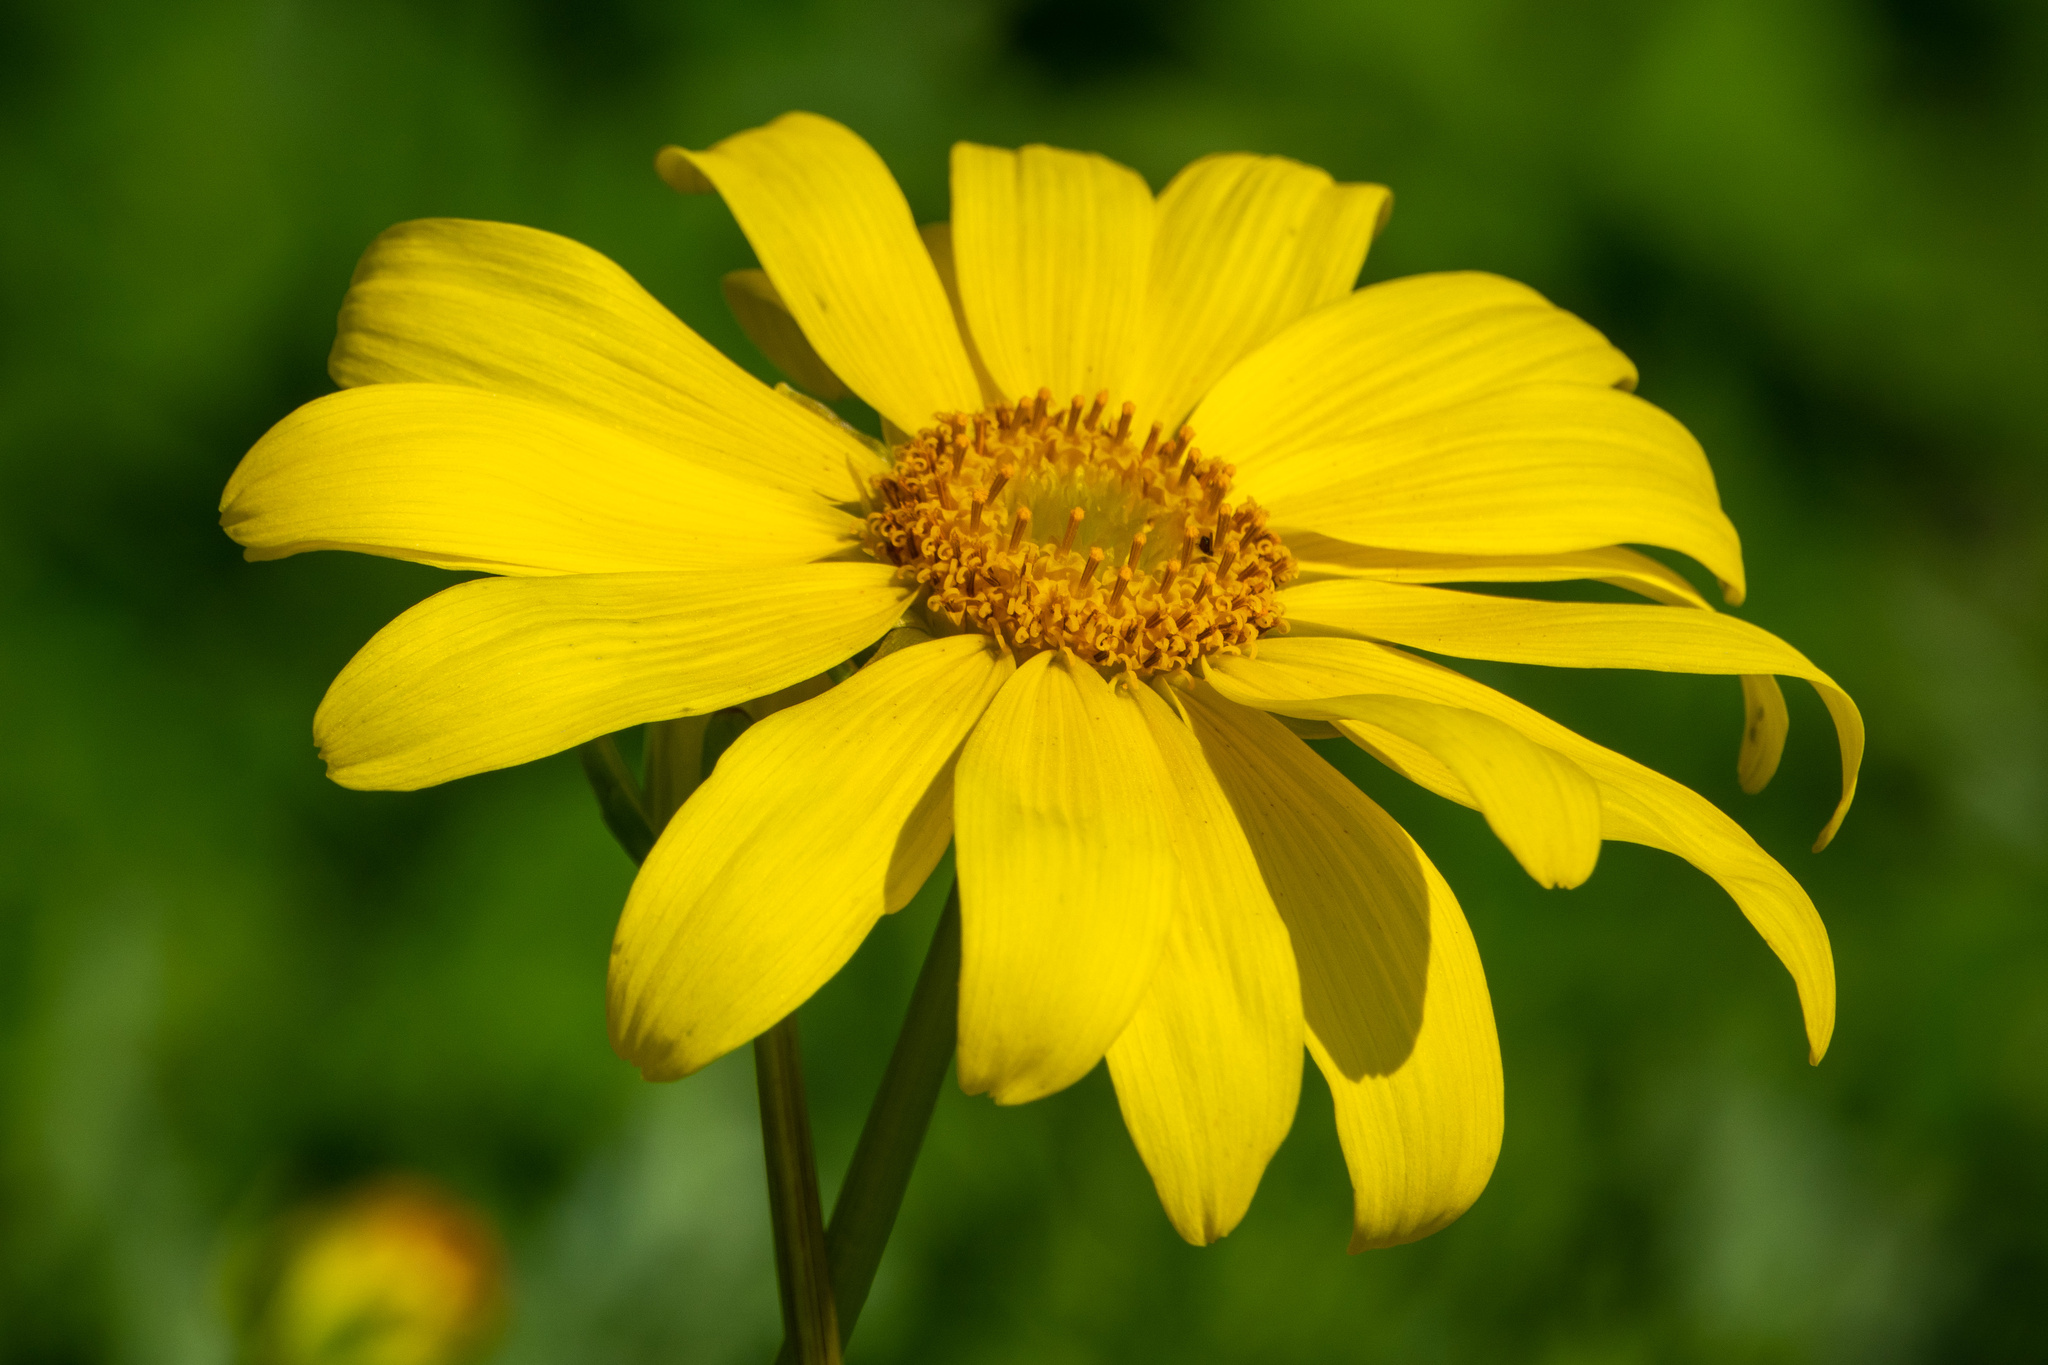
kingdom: Plantae
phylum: Tracheophyta
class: Magnoliopsida
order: Asterales
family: Asteraceae
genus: Coreopsis
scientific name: Coreopsis maritima
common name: Sea-dahlia
